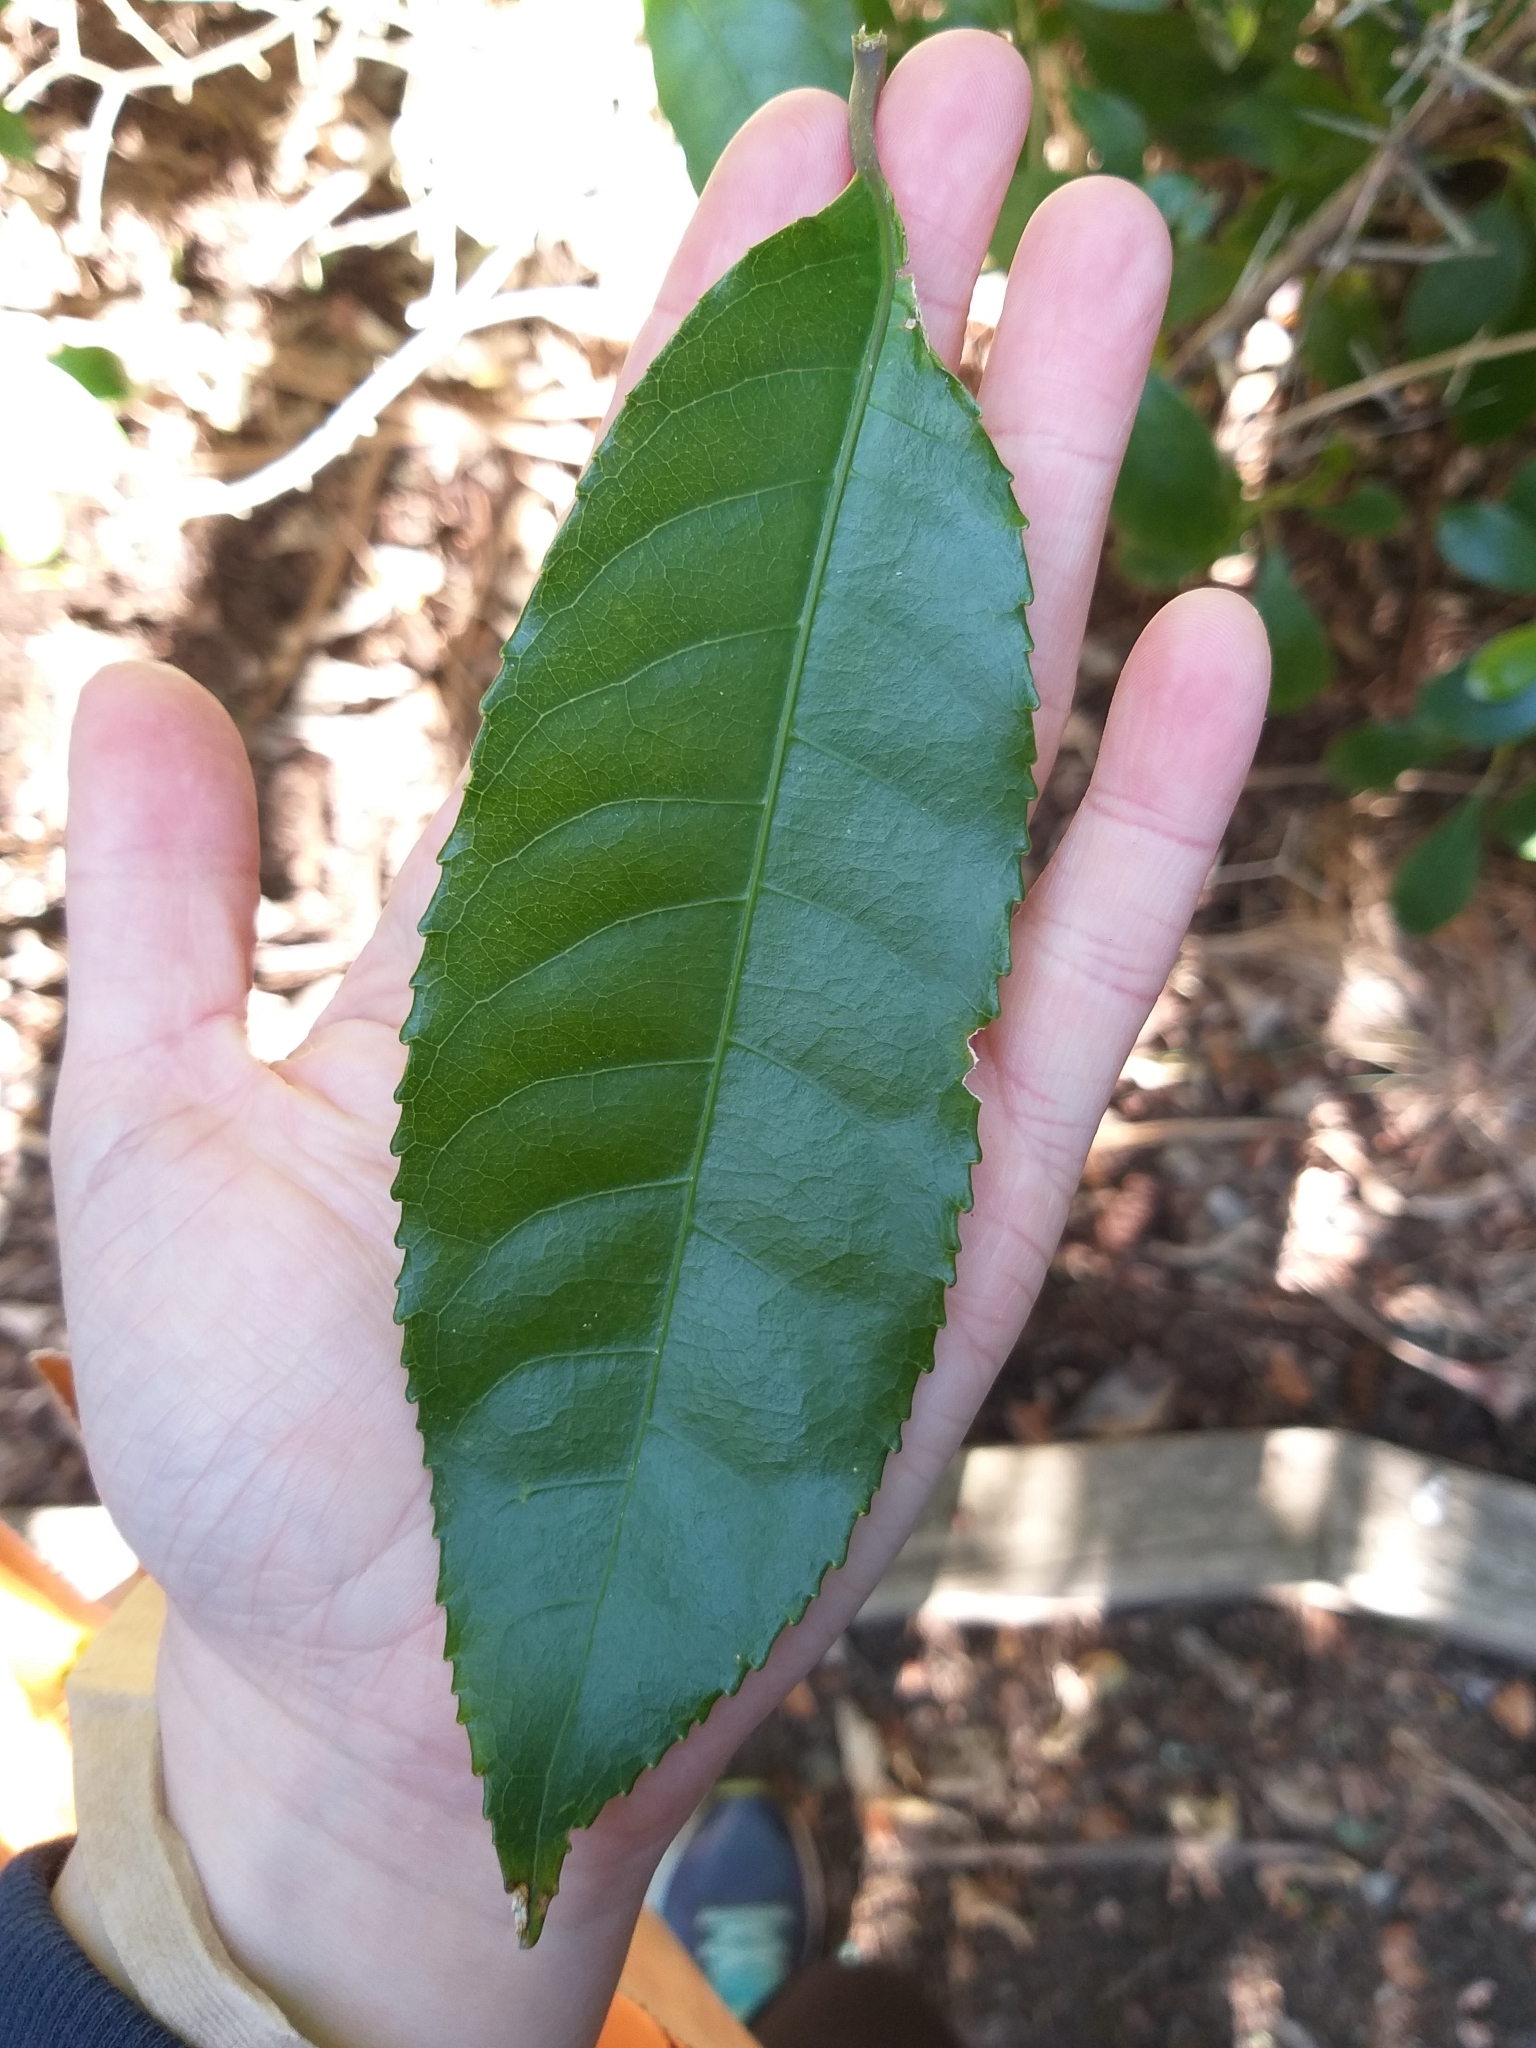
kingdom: Plantae
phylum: Tracheophyta
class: Magnoliopsida
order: Malpighiales
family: Violaceae
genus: Melicytus
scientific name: Melicytus ramiflorus
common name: Mahoe
